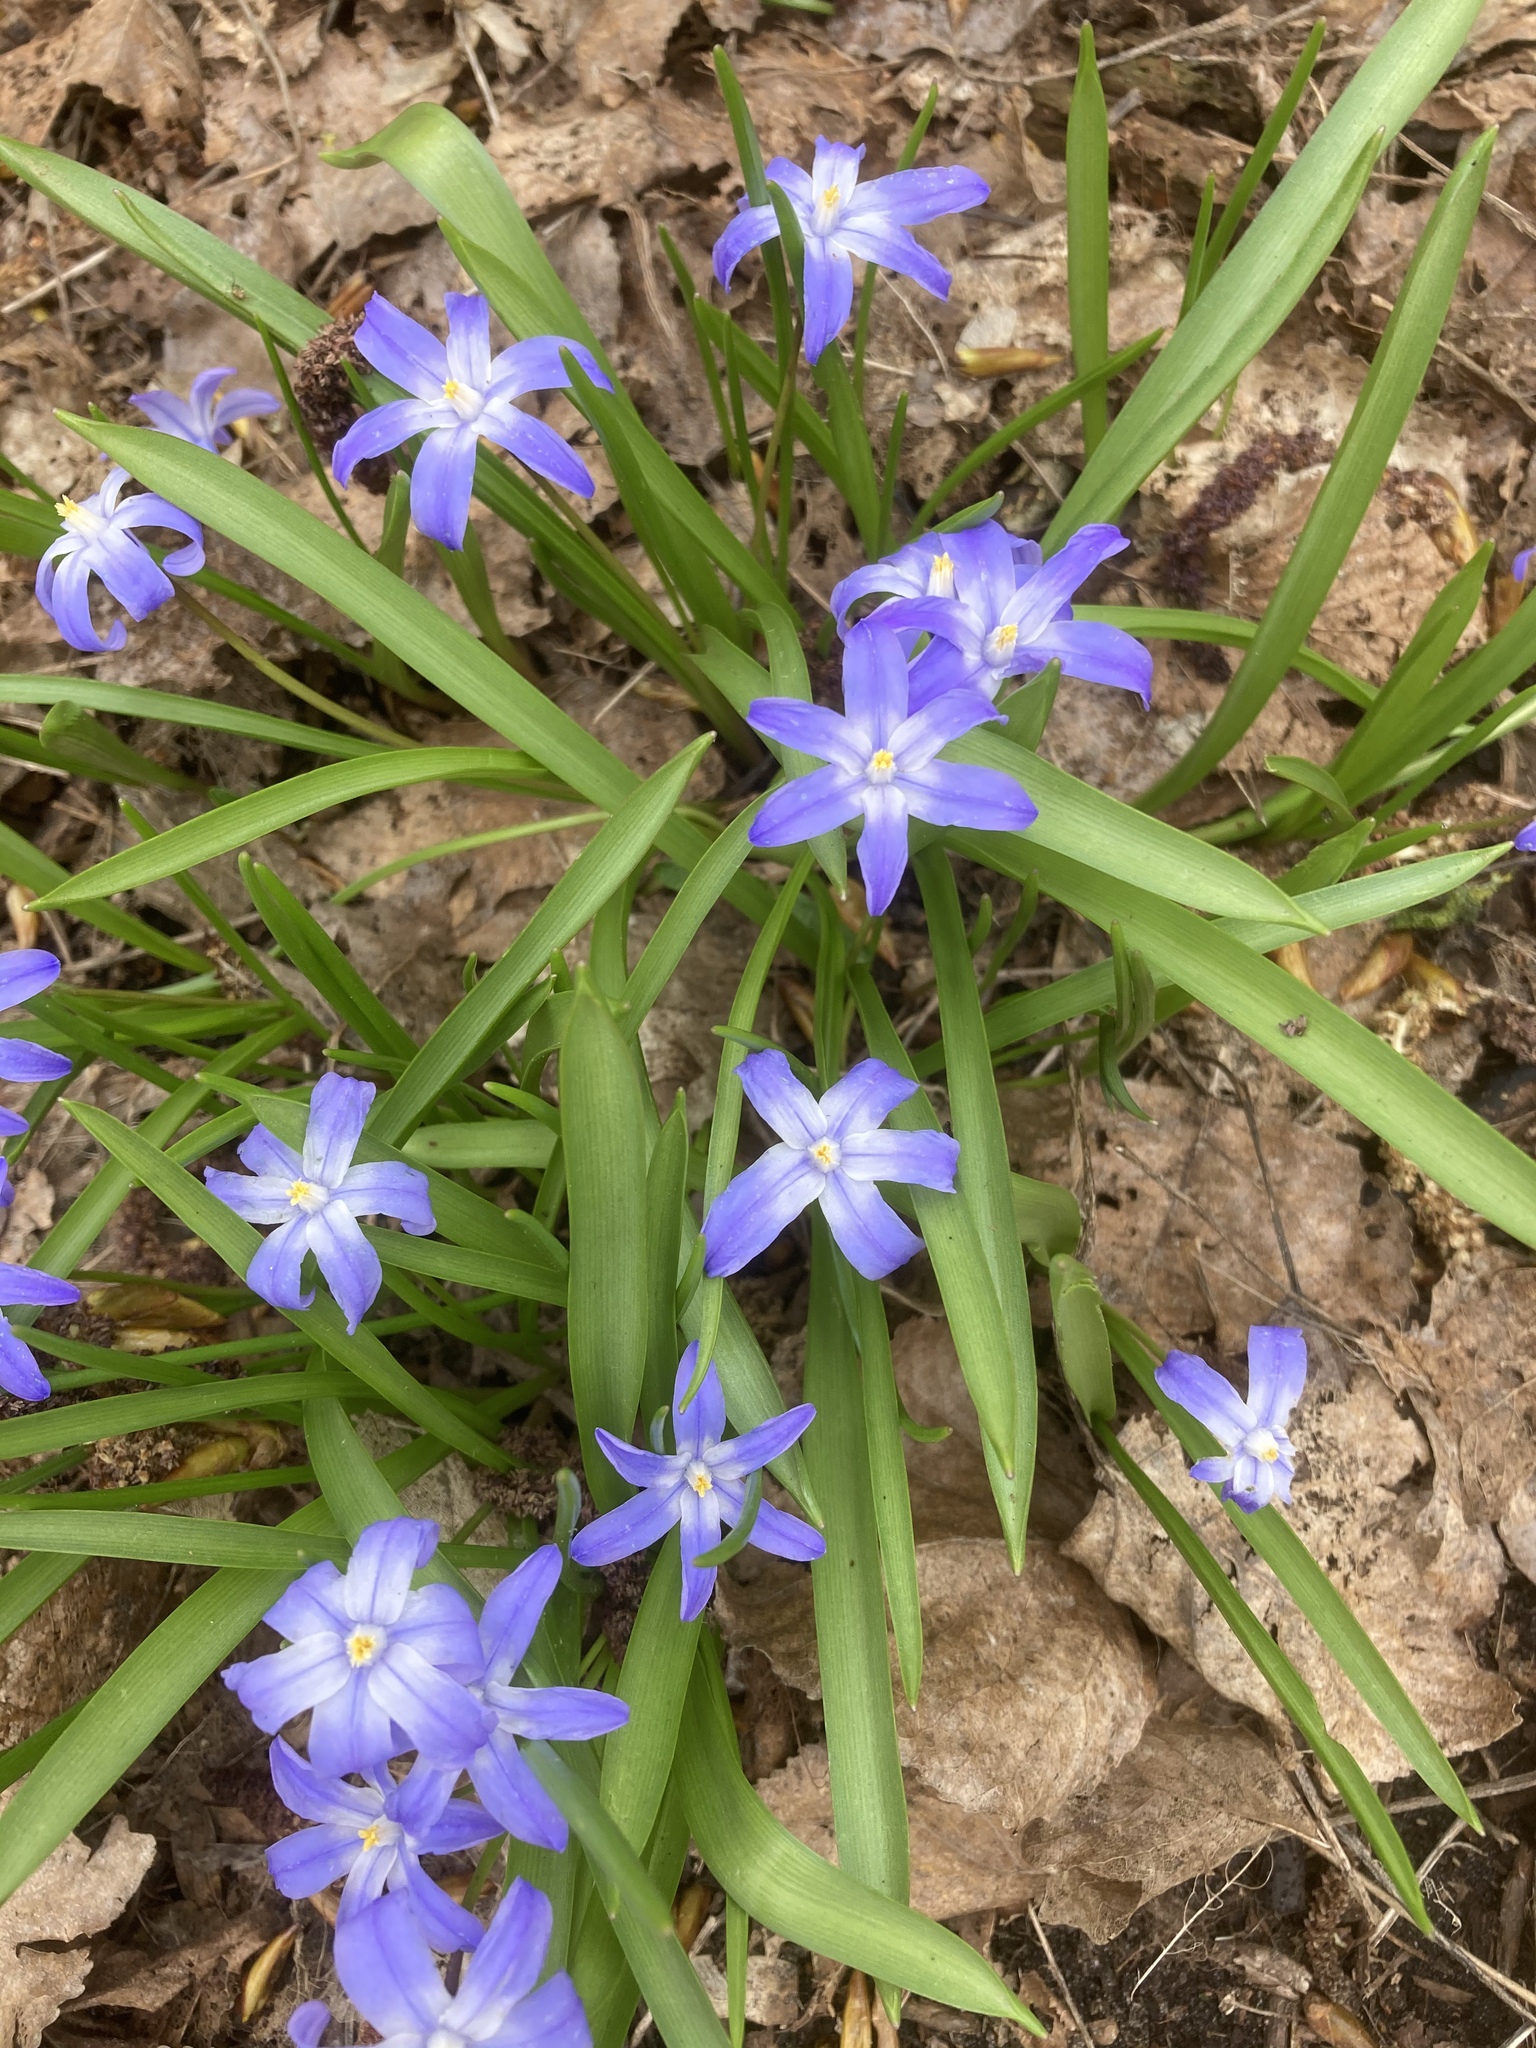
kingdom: Plantae
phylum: Tracheophyta
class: Liliopsida
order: Asparagales
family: Asparagaceae
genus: Scilla
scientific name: Scilla luciliae
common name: Boissier's glory-of-the-snow
